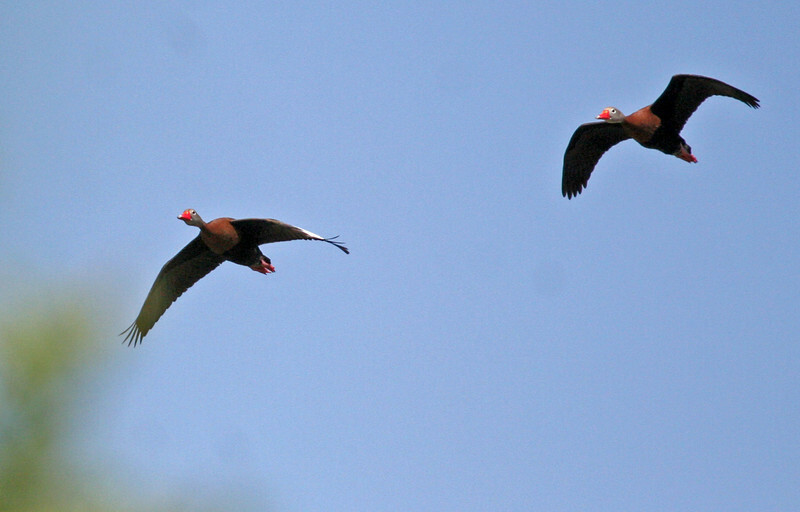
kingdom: Animalia
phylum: Chordata
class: Aves
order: Anseriformes
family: Anatidae
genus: Dendrocygna
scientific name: Dendrocygna autumnalis
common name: Black-bellied whistling duck
